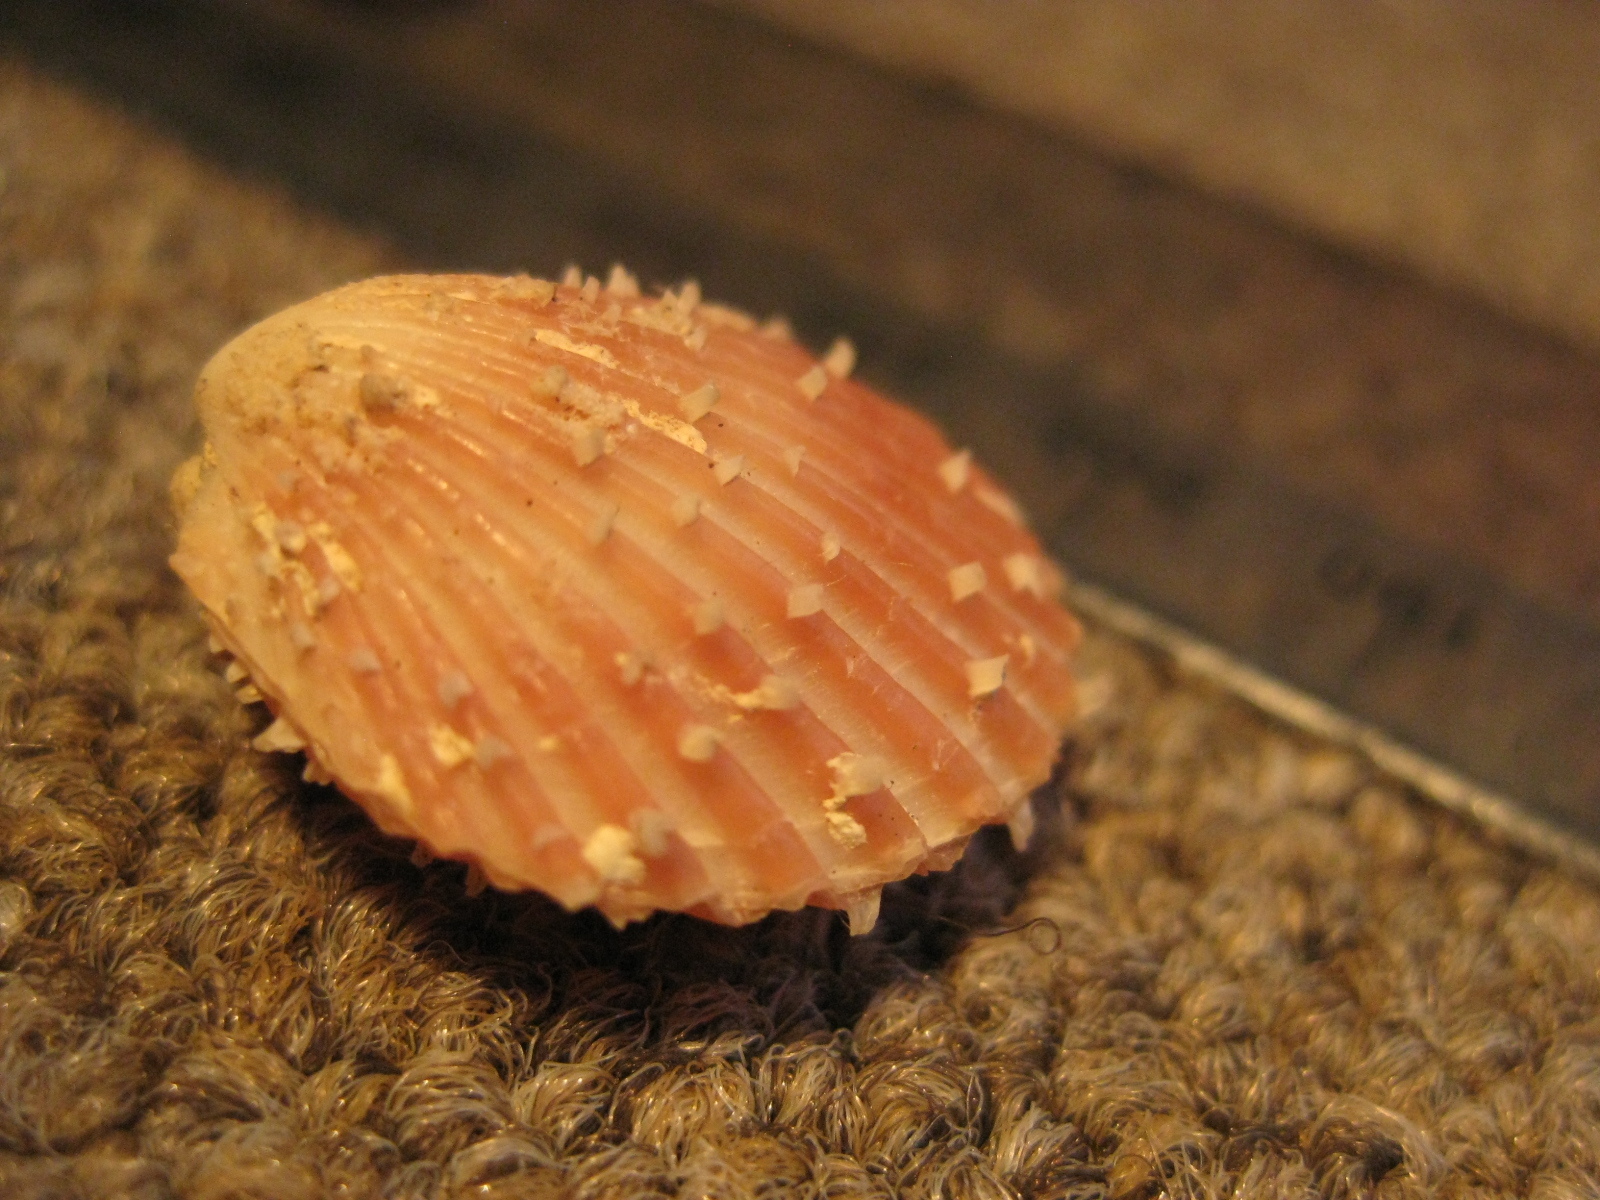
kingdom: Animalia
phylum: Mollusca
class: Bivalvia
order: Limida
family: Limidae
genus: Lima
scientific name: Lima zealandica
